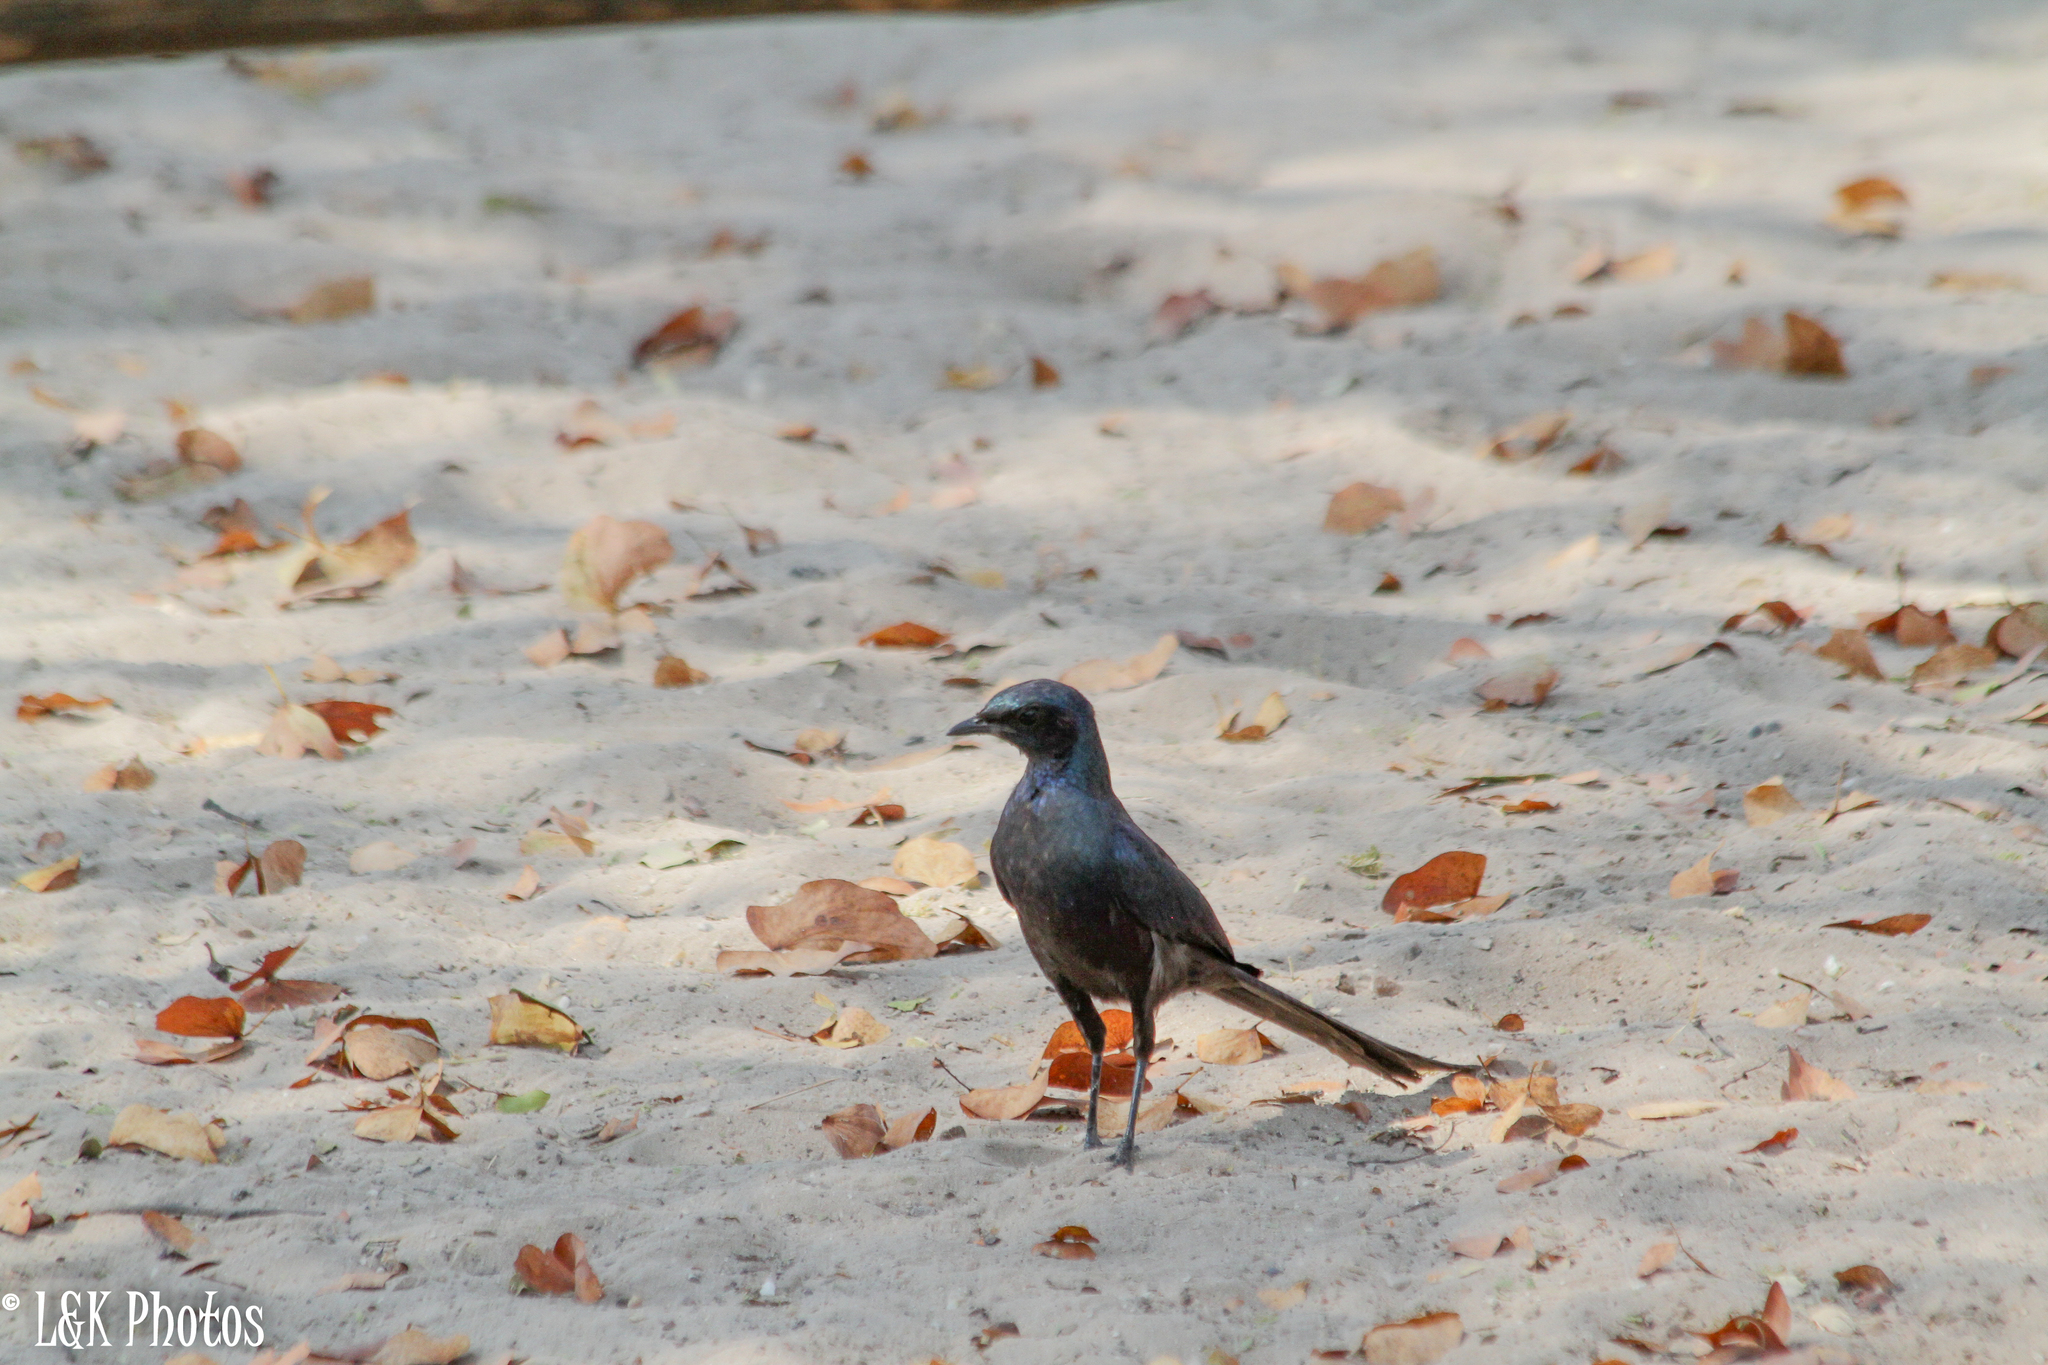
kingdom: Animalia
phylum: Chordata
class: Aves
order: Passeriformes
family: Sturnidae
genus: Lamprotornis
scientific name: Lamprotornis mevesii
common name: Meves's starling
